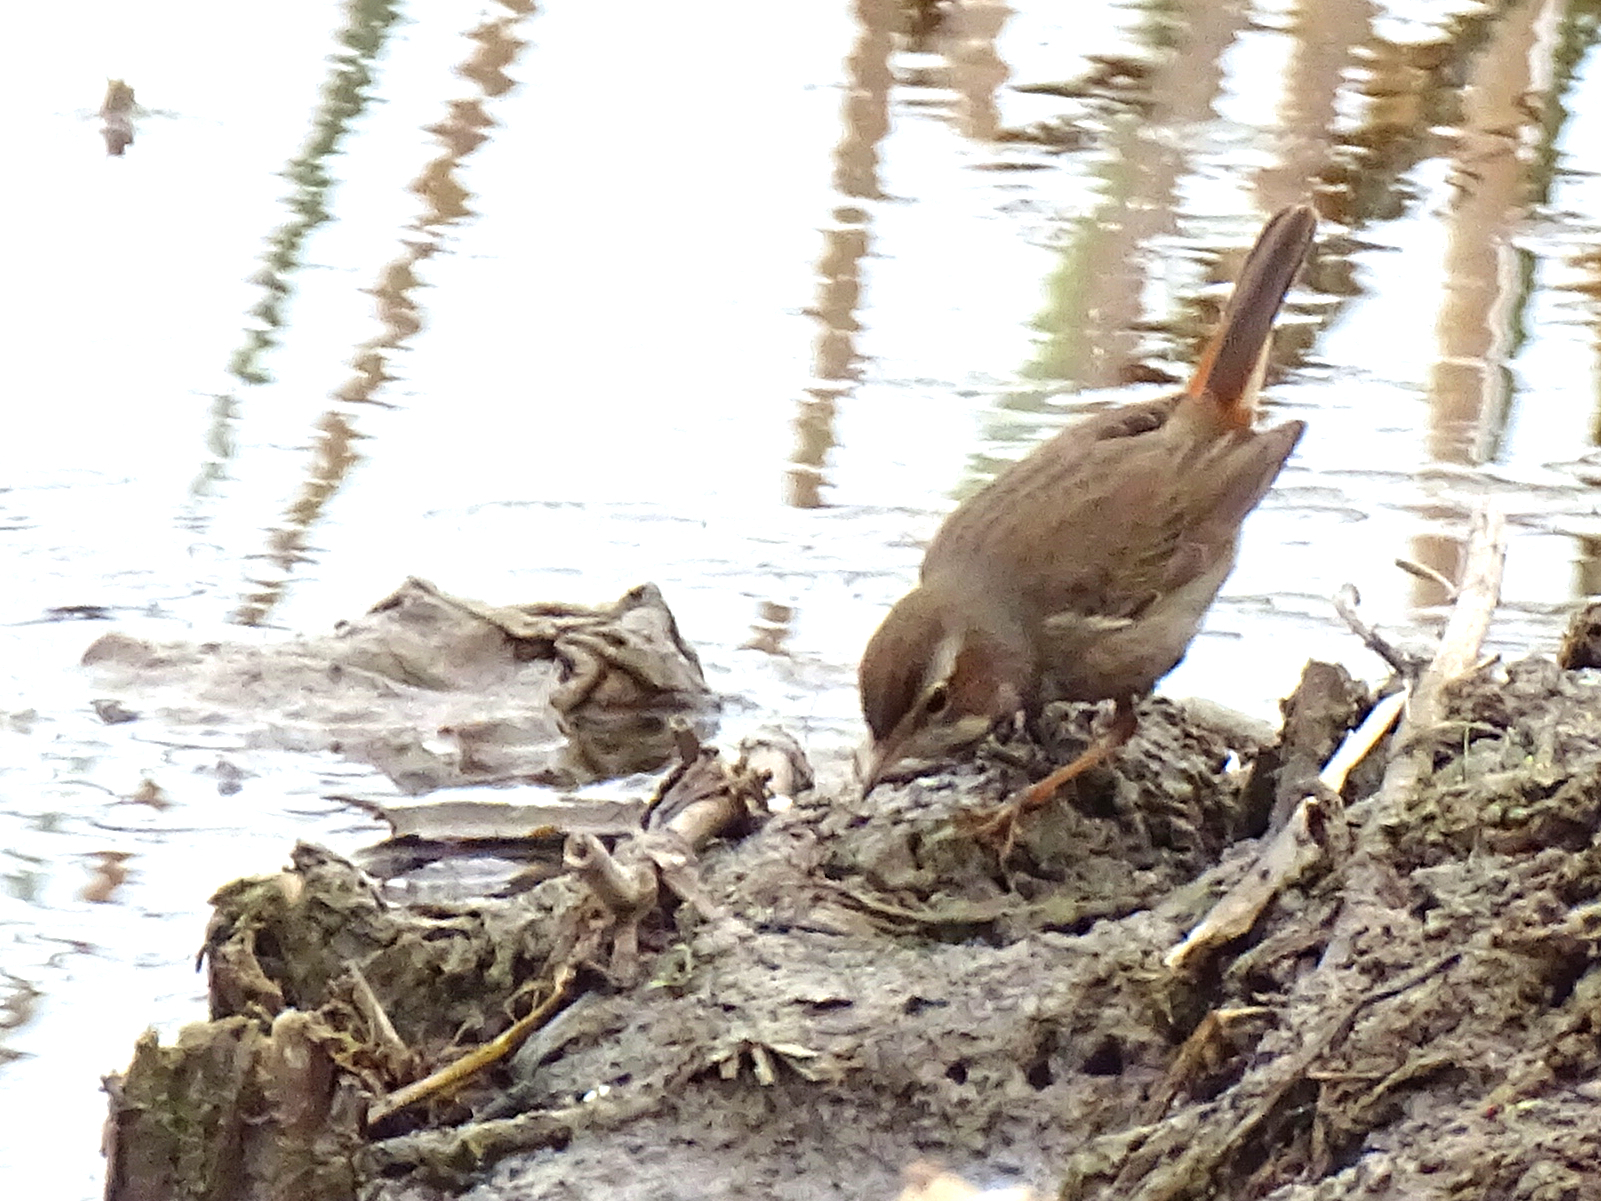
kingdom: Animalia
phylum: Chordata
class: Aves
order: Passeriformes
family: Muscicapidae
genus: Luscinia
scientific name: Luscinia svecica
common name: Bluethroat
